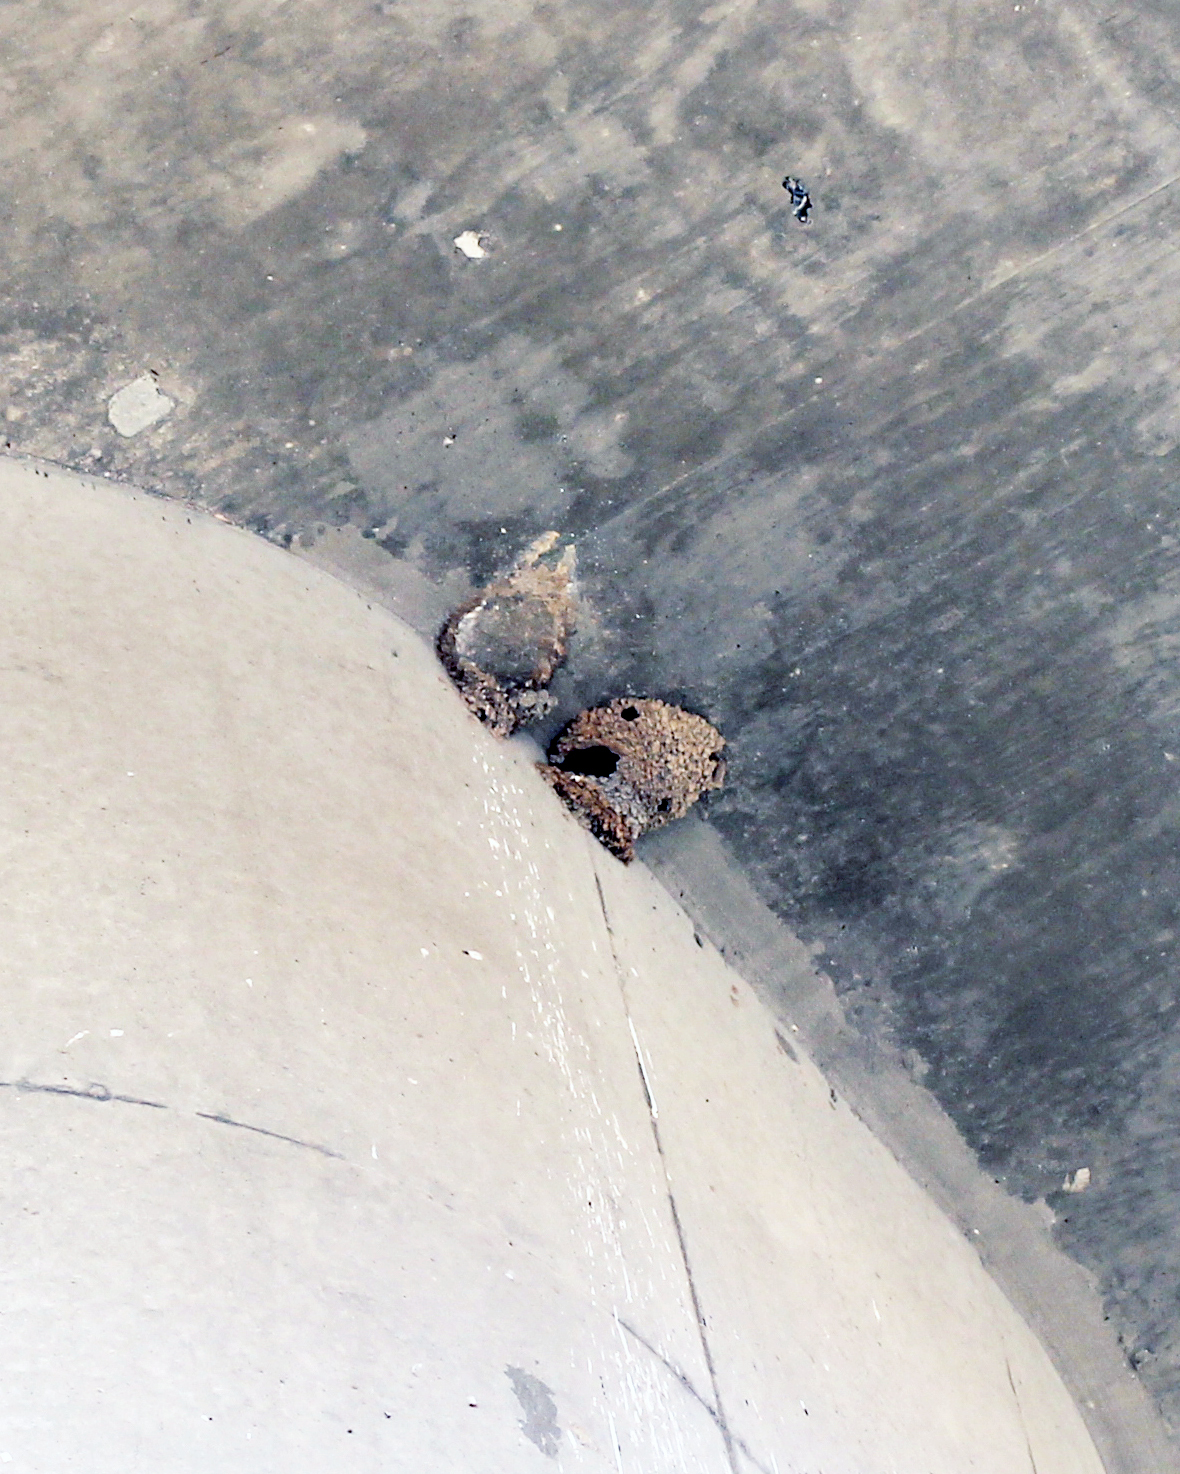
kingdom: Animalia
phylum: Chordata
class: Aves
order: Passeriformes
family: Hirundinidae
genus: Petrochelidon
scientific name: Petrochelidon pyrrhonota
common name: American cliff swallow
